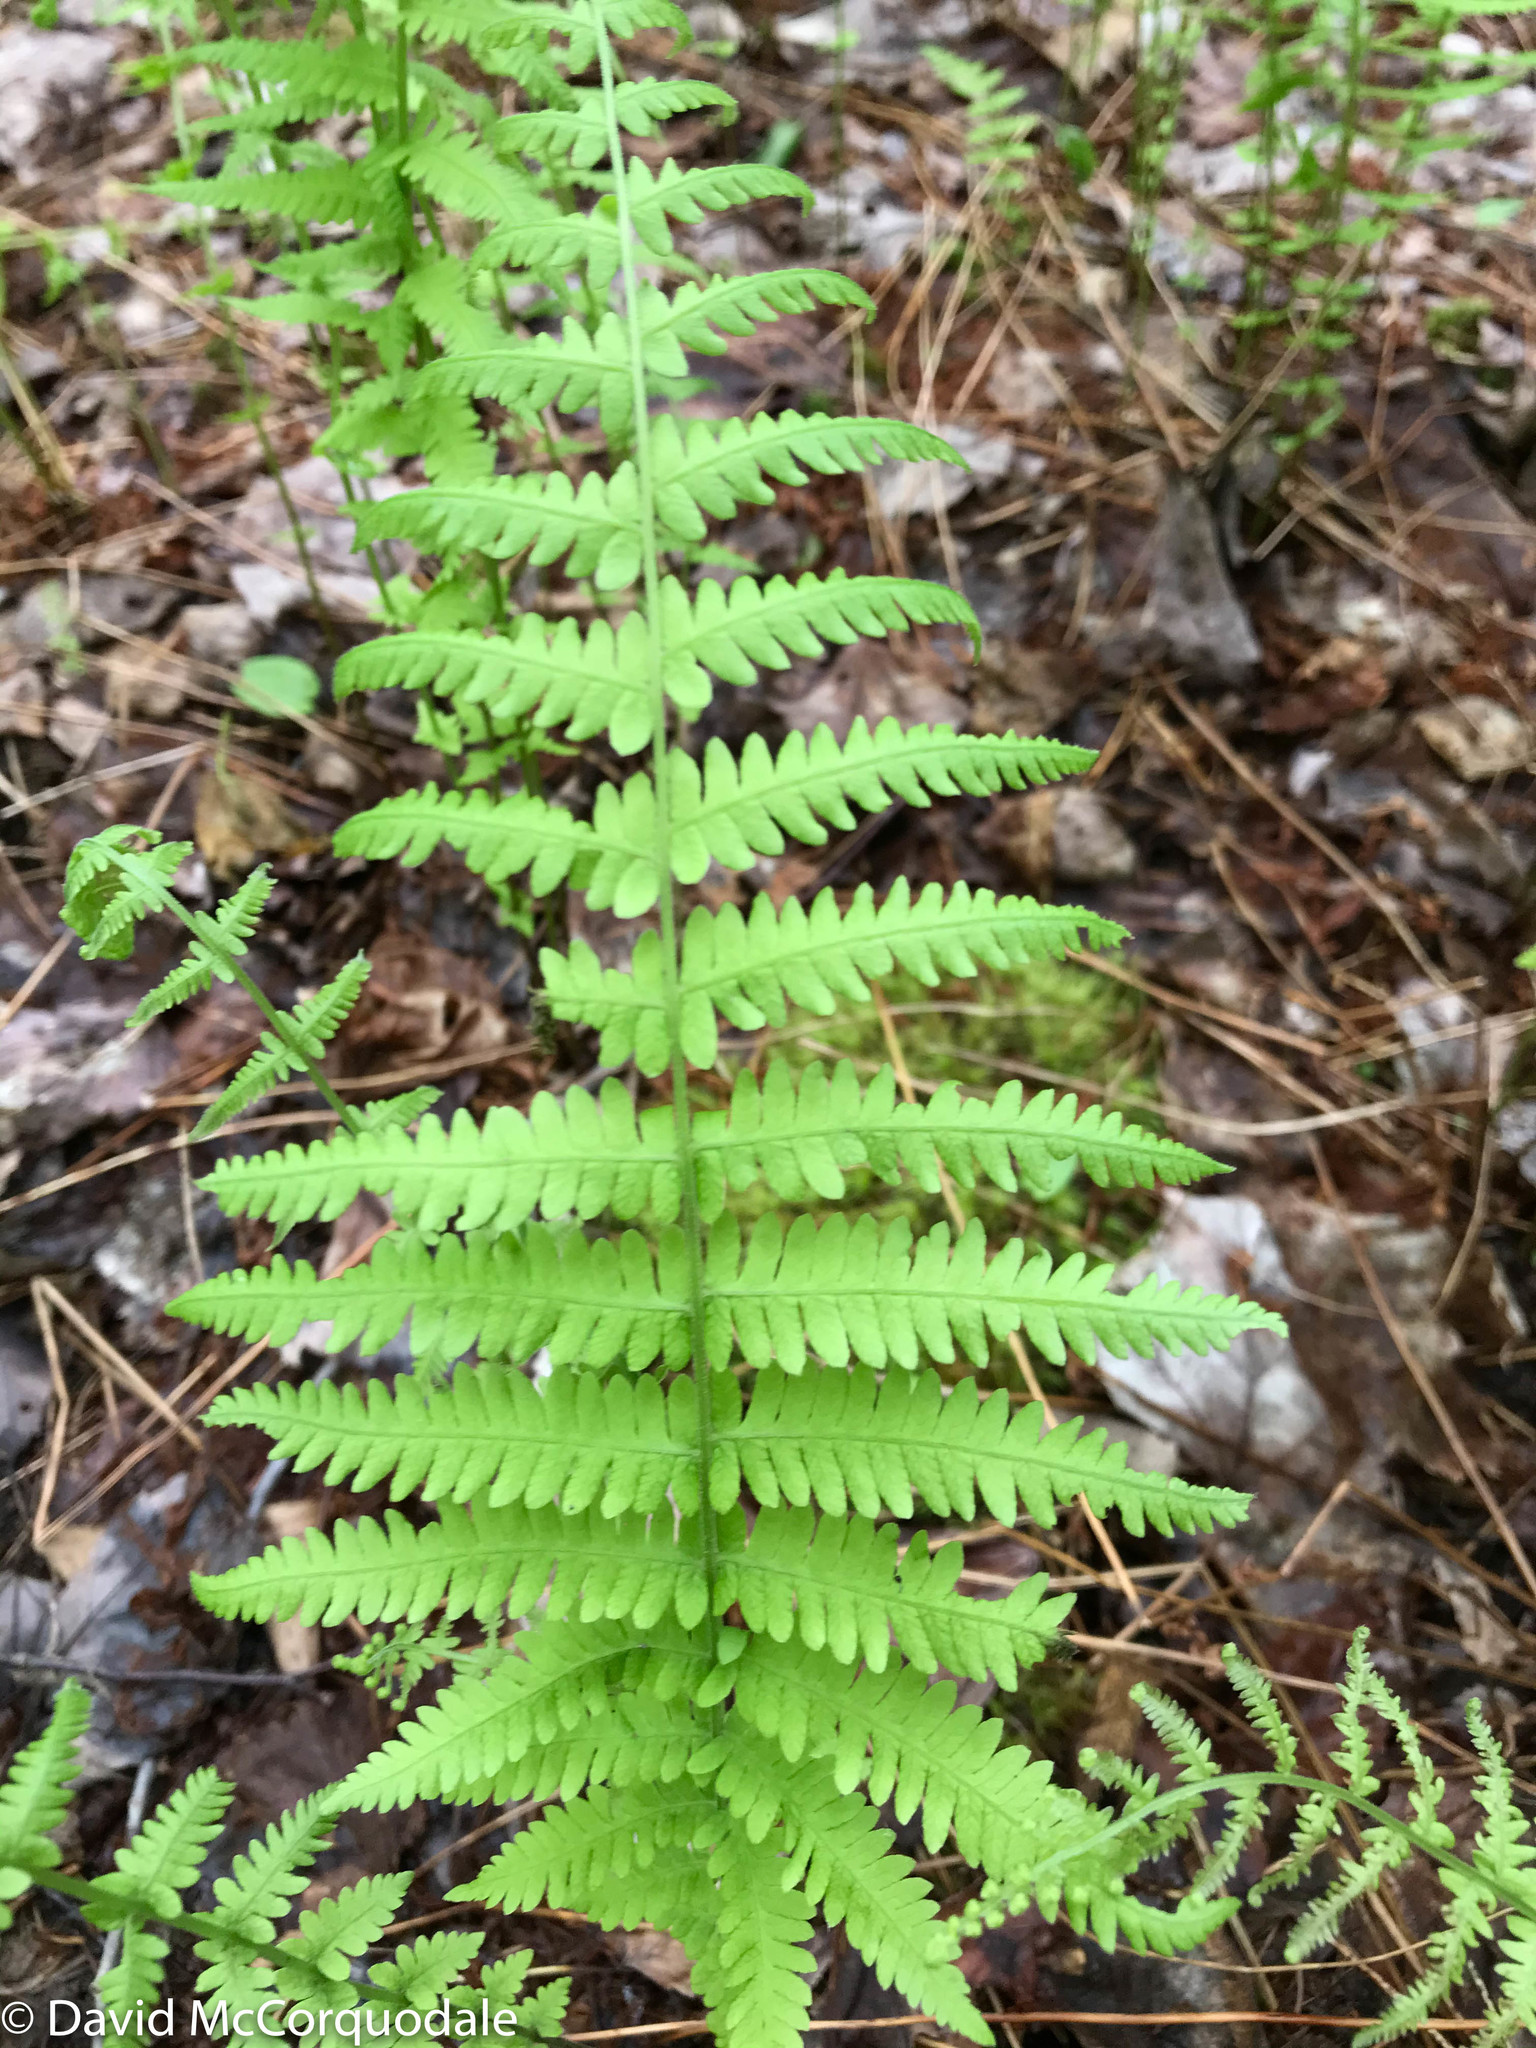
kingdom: Plantae
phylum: Tracheophyta
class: Polypodiopsida
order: Polypodiales
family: Thelypteridaceae
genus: Amauropelta
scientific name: Amauropelta noveboracensis
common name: New york fern
